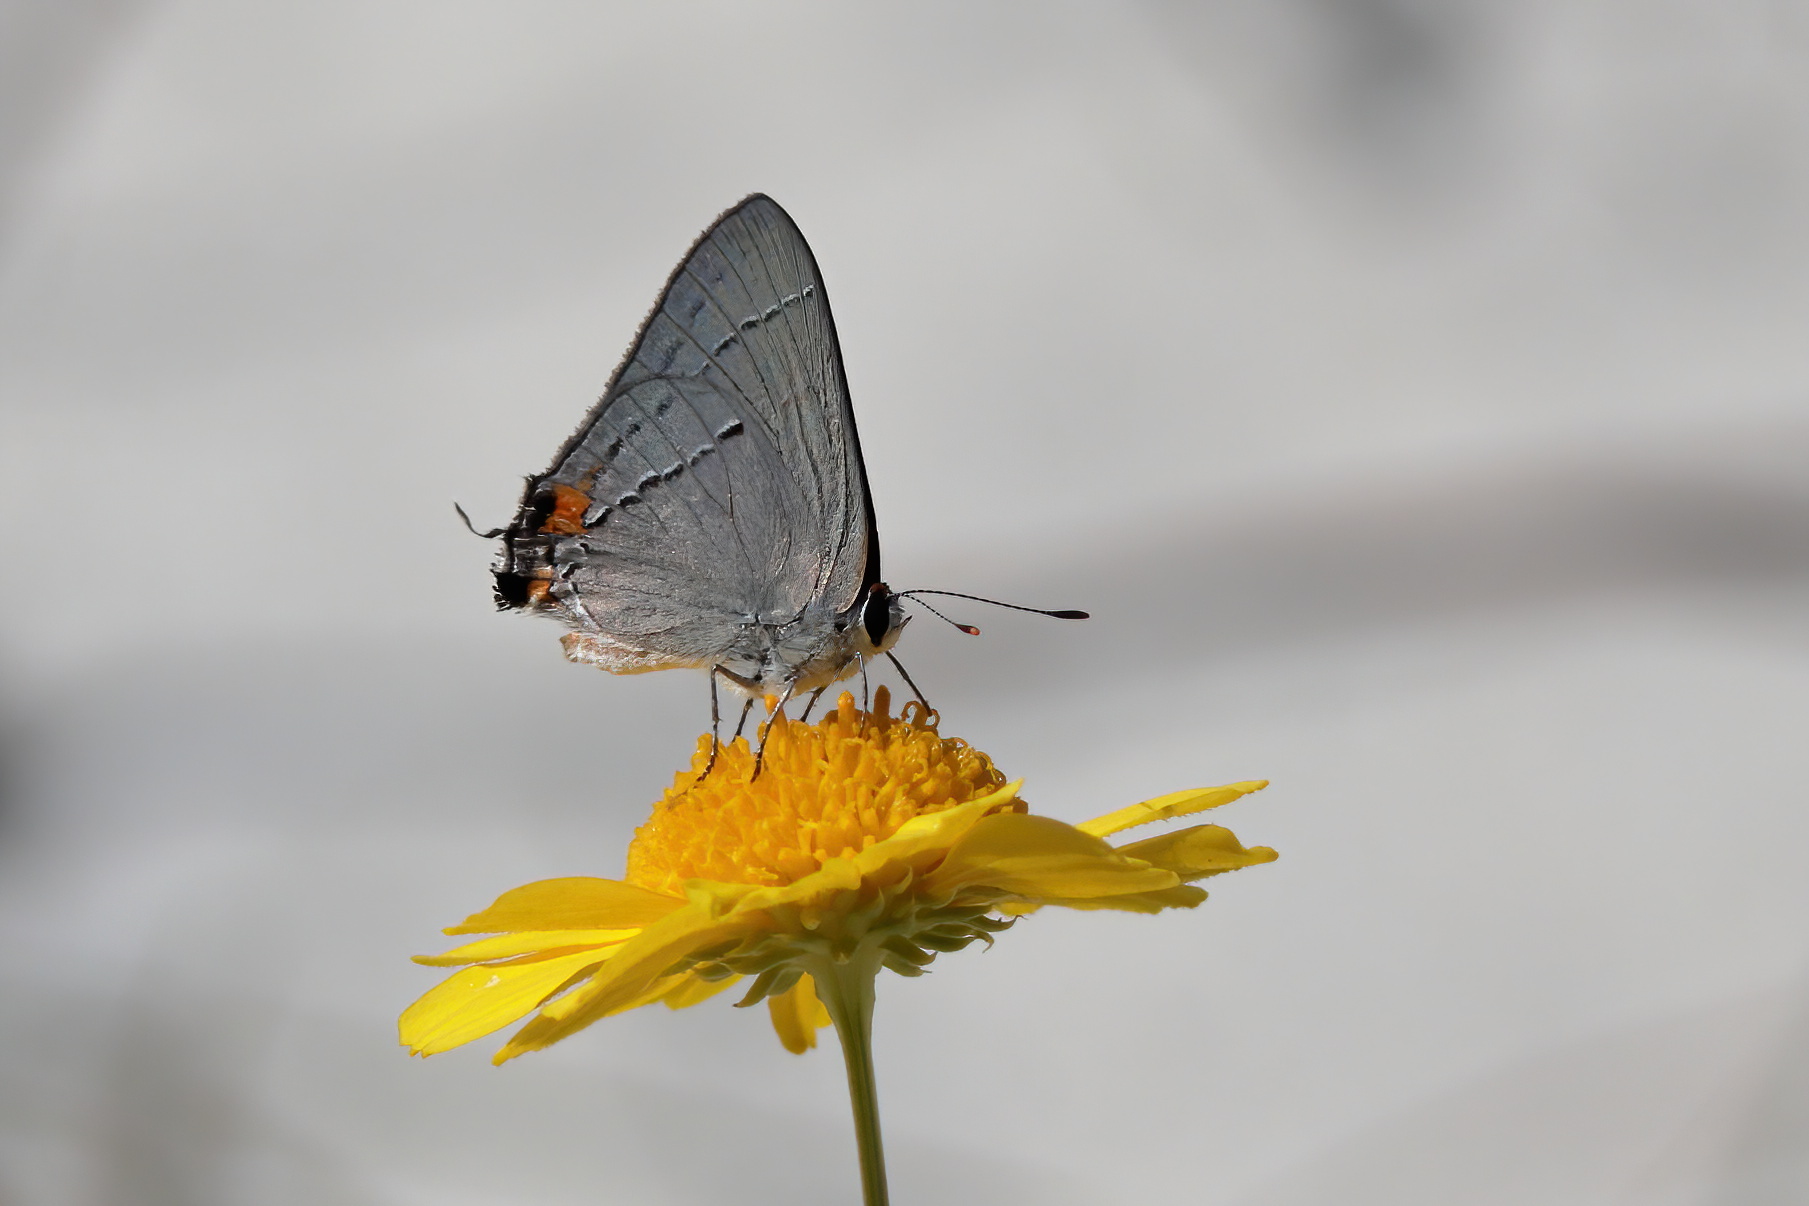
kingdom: Animalia
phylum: Arthropoda
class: Insecta
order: Lepidoptera
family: Lycaenidae
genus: Strymon
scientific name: Strymon melinus
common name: Gray hairstreak
